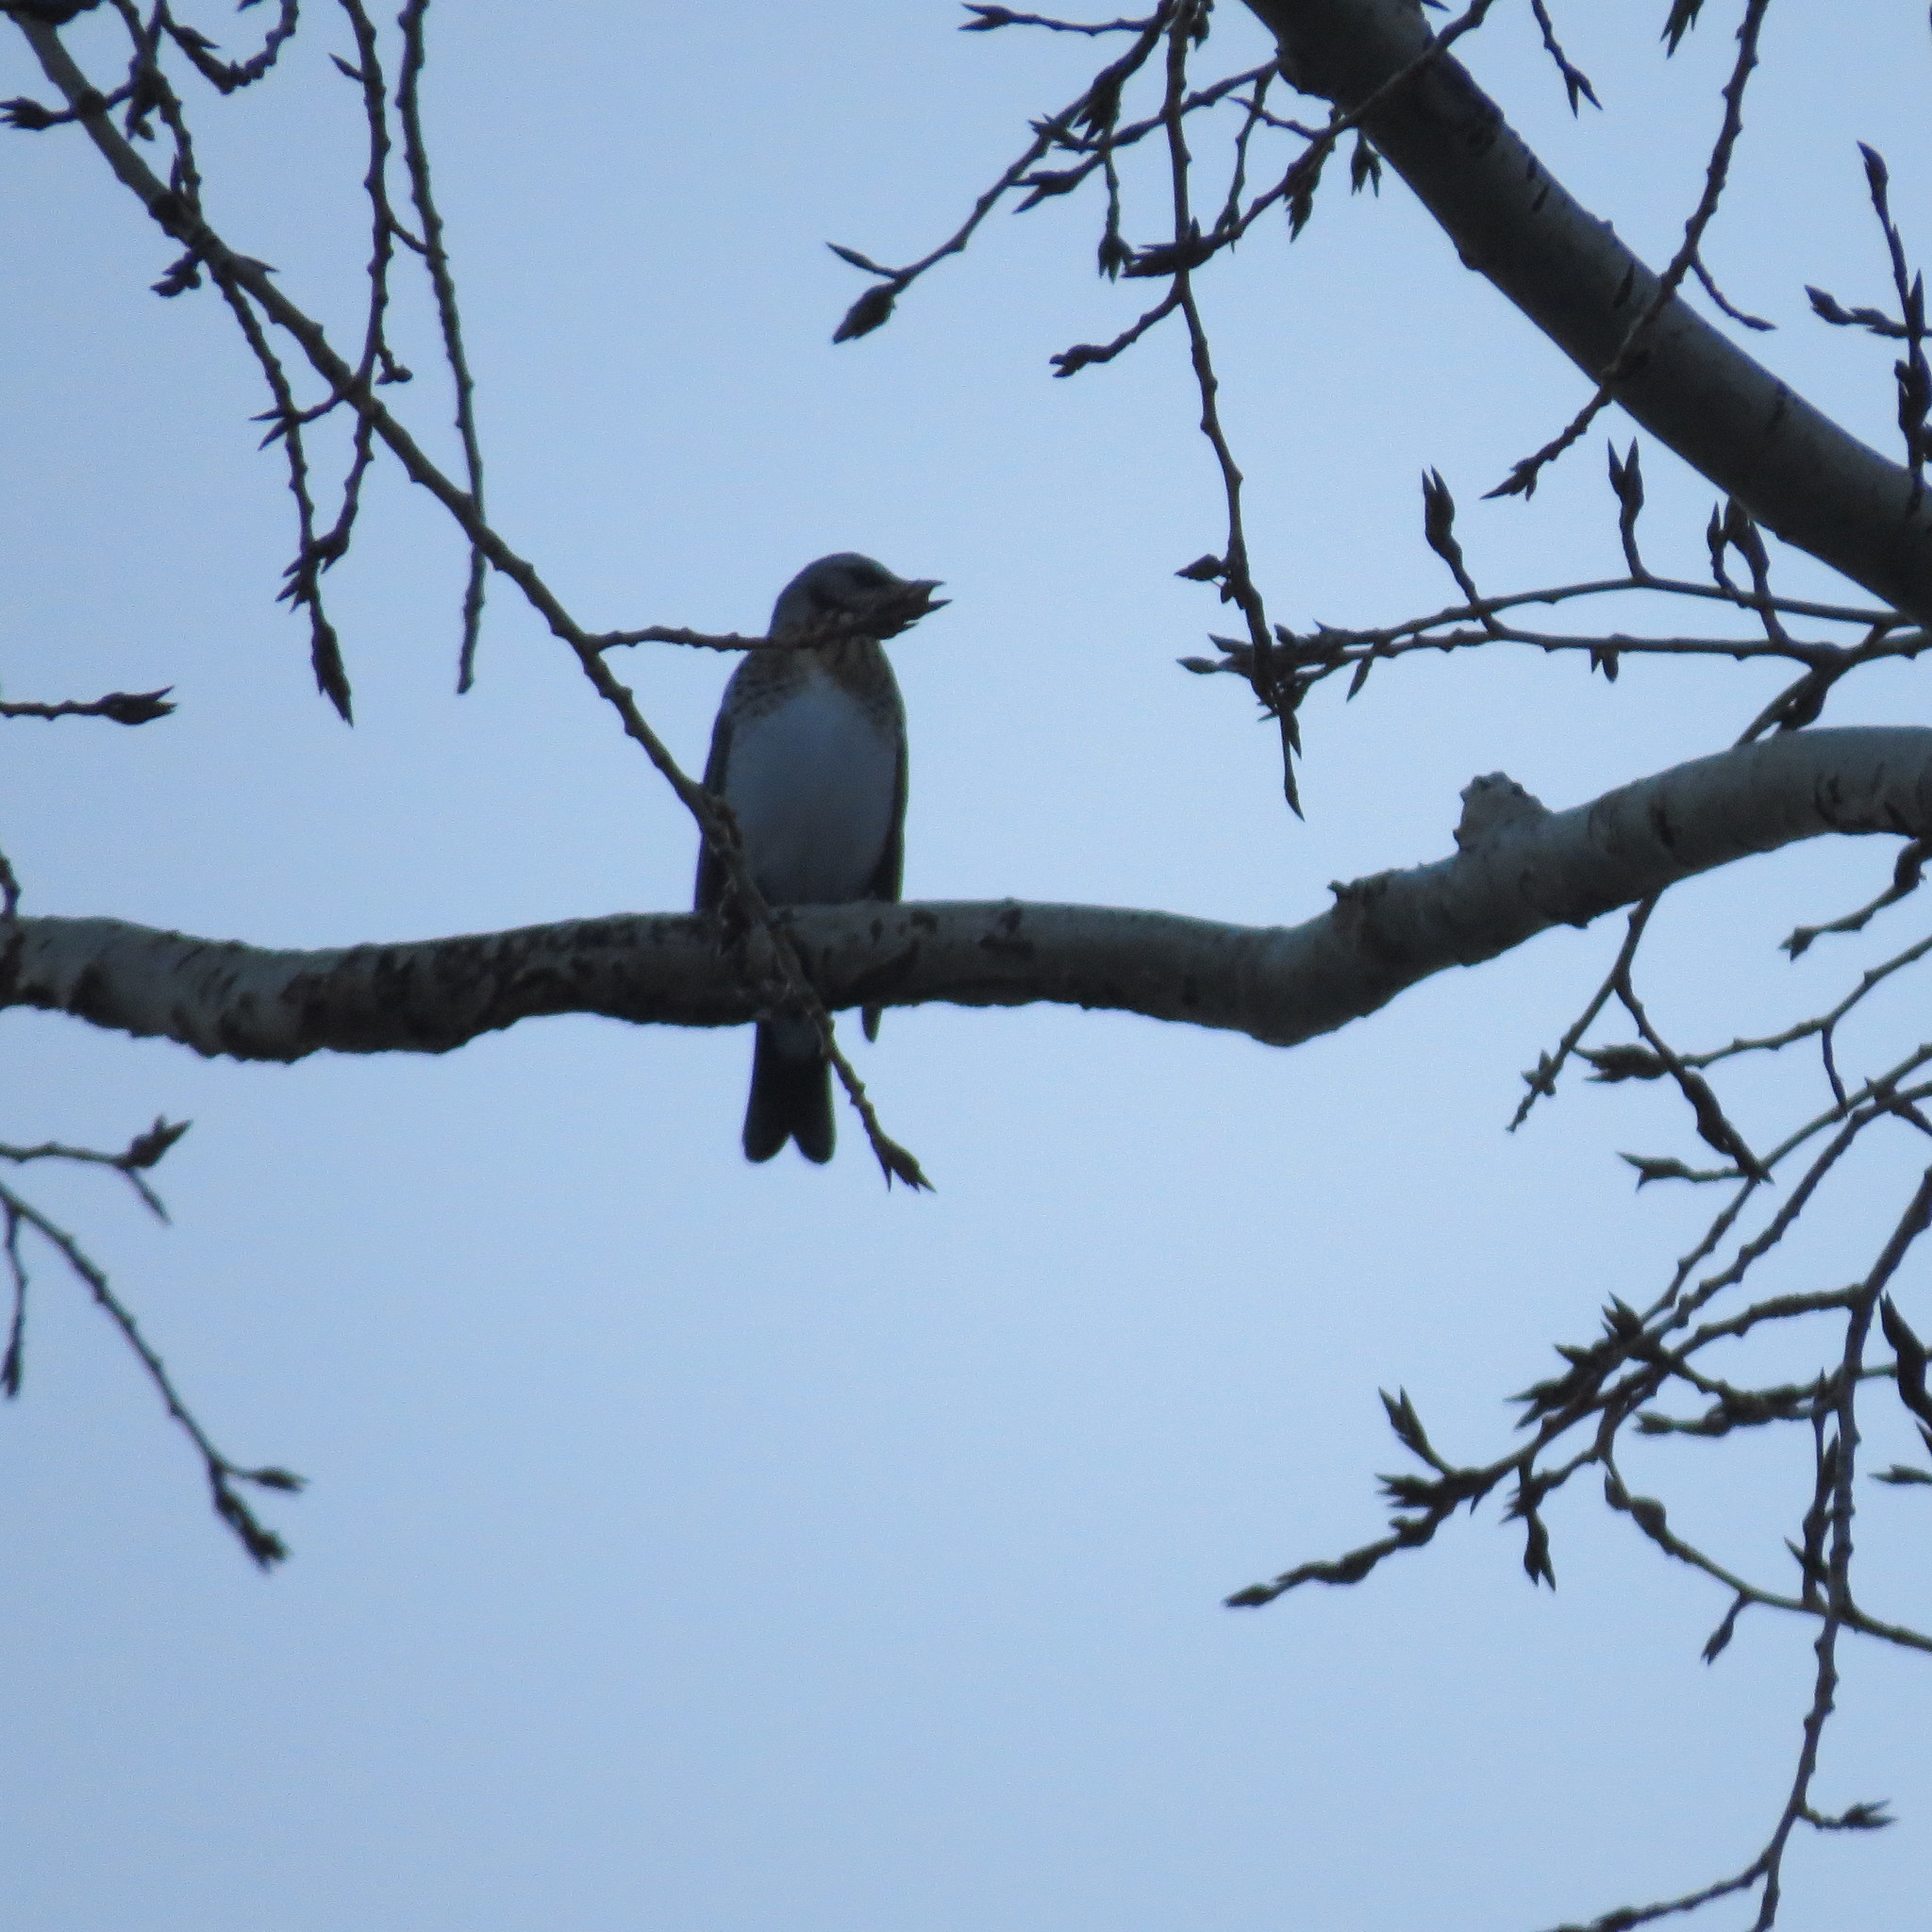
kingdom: Animalia
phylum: Chordata
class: Aves
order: Passeriformes
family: Turdidae
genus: Turdus
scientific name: Turdus pilaris
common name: Fieldfare
